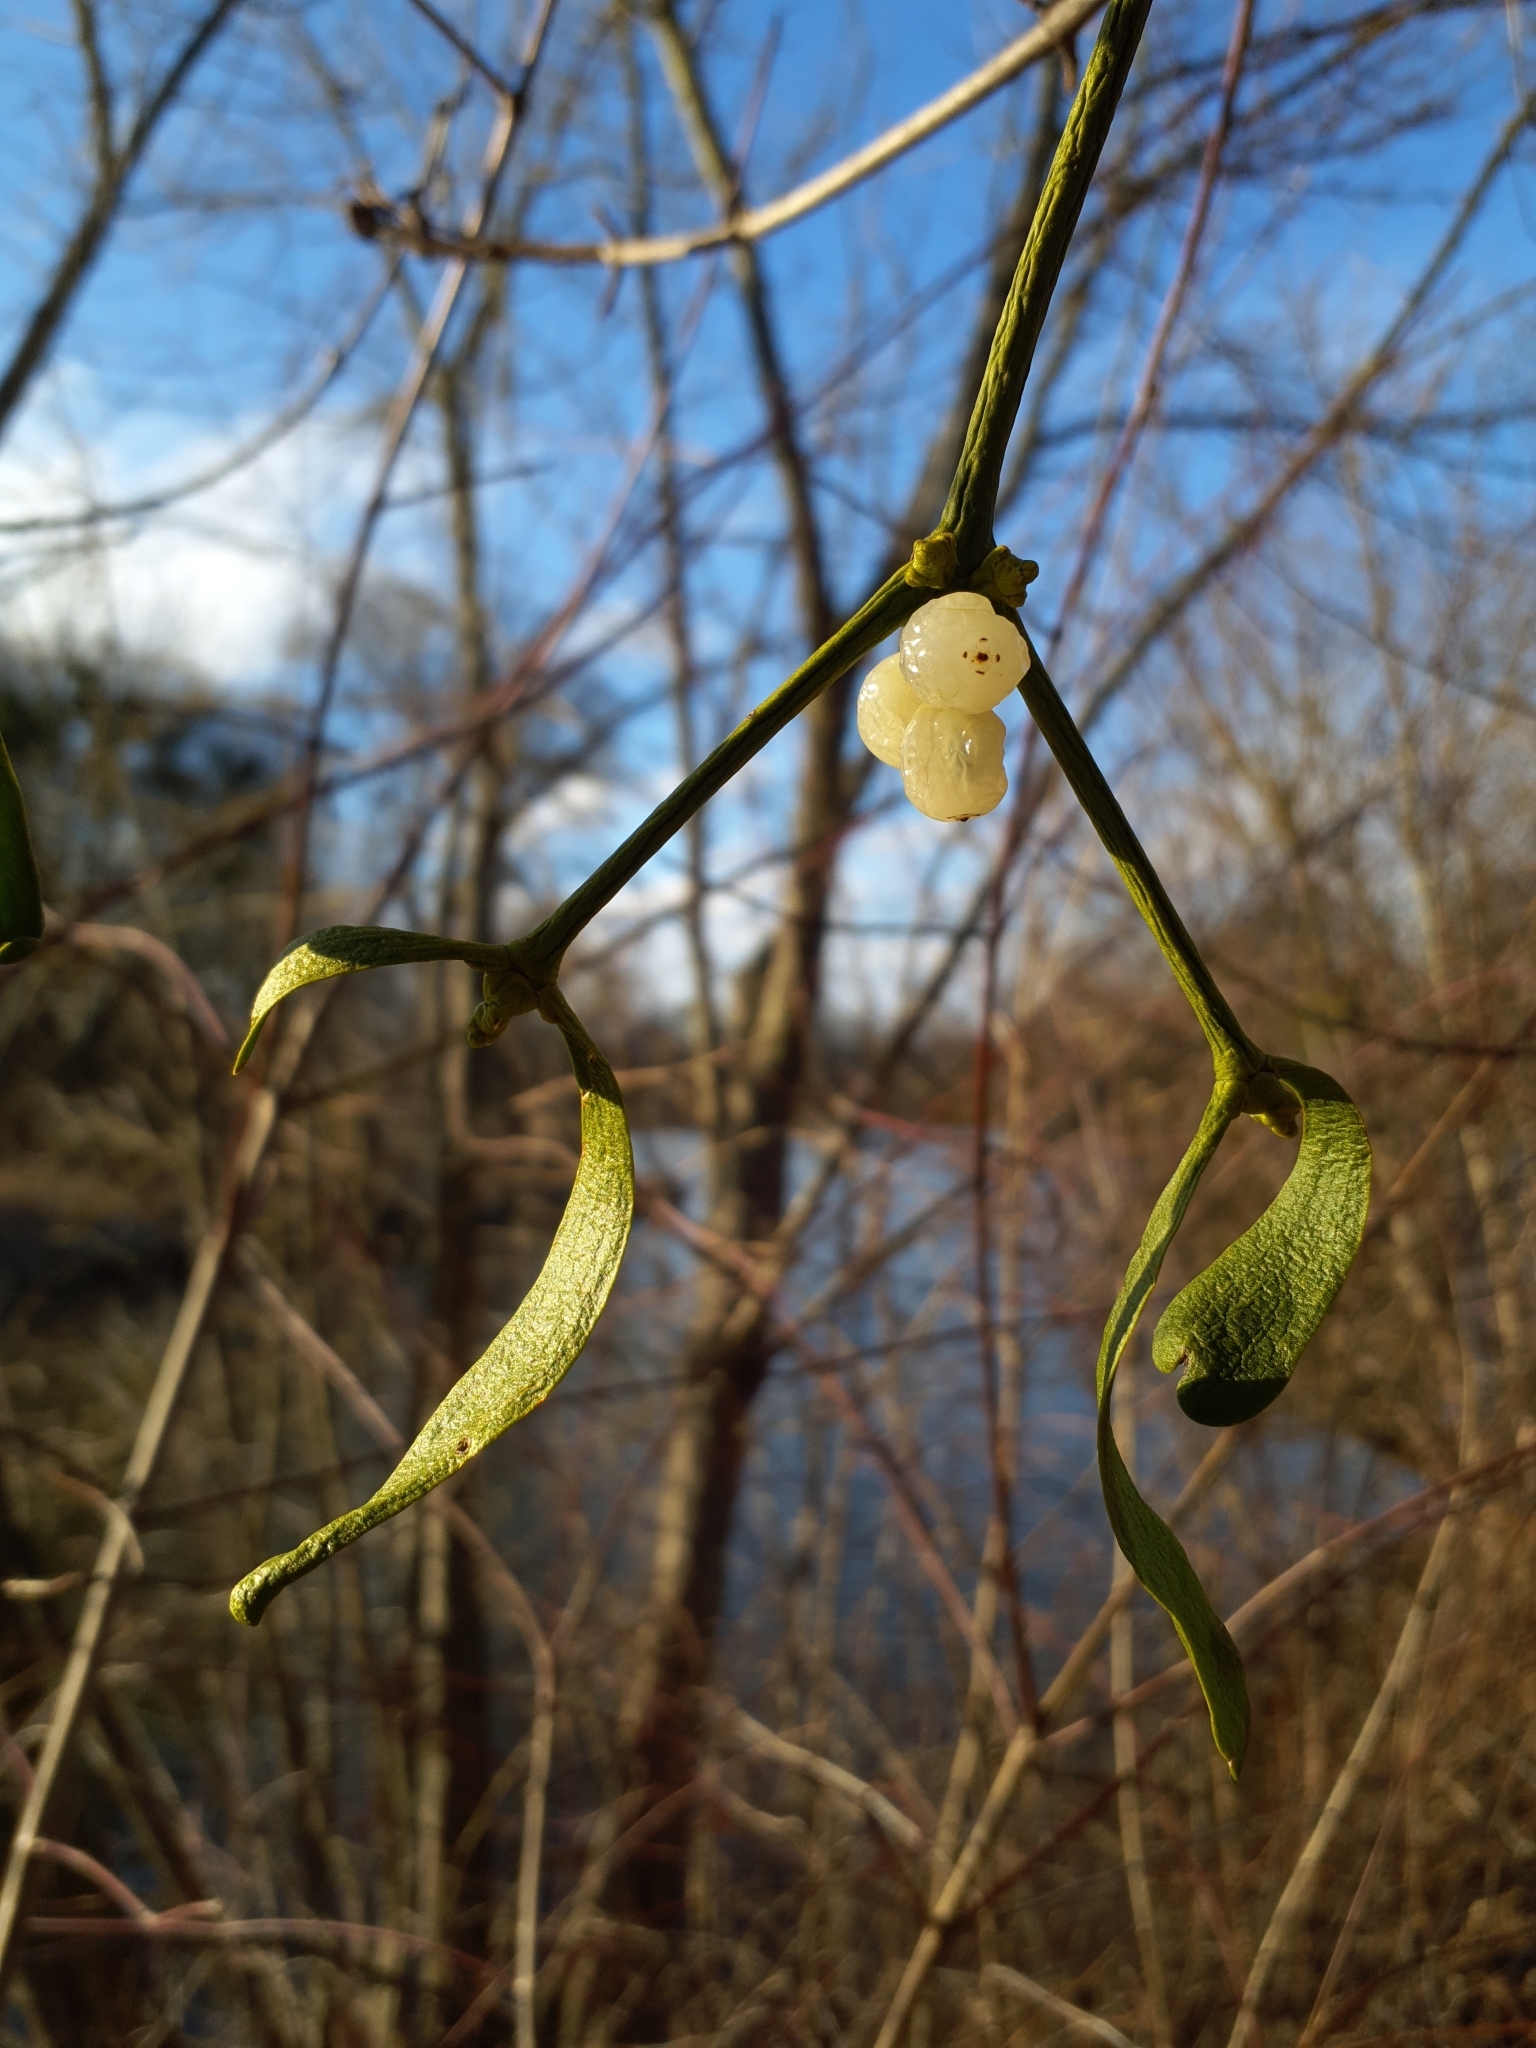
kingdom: Plantae
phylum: Tracheophyta
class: Magnoliopsida
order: Santalales
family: Viscaceae
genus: Viscum
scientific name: Viscum album
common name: Mistletoe
